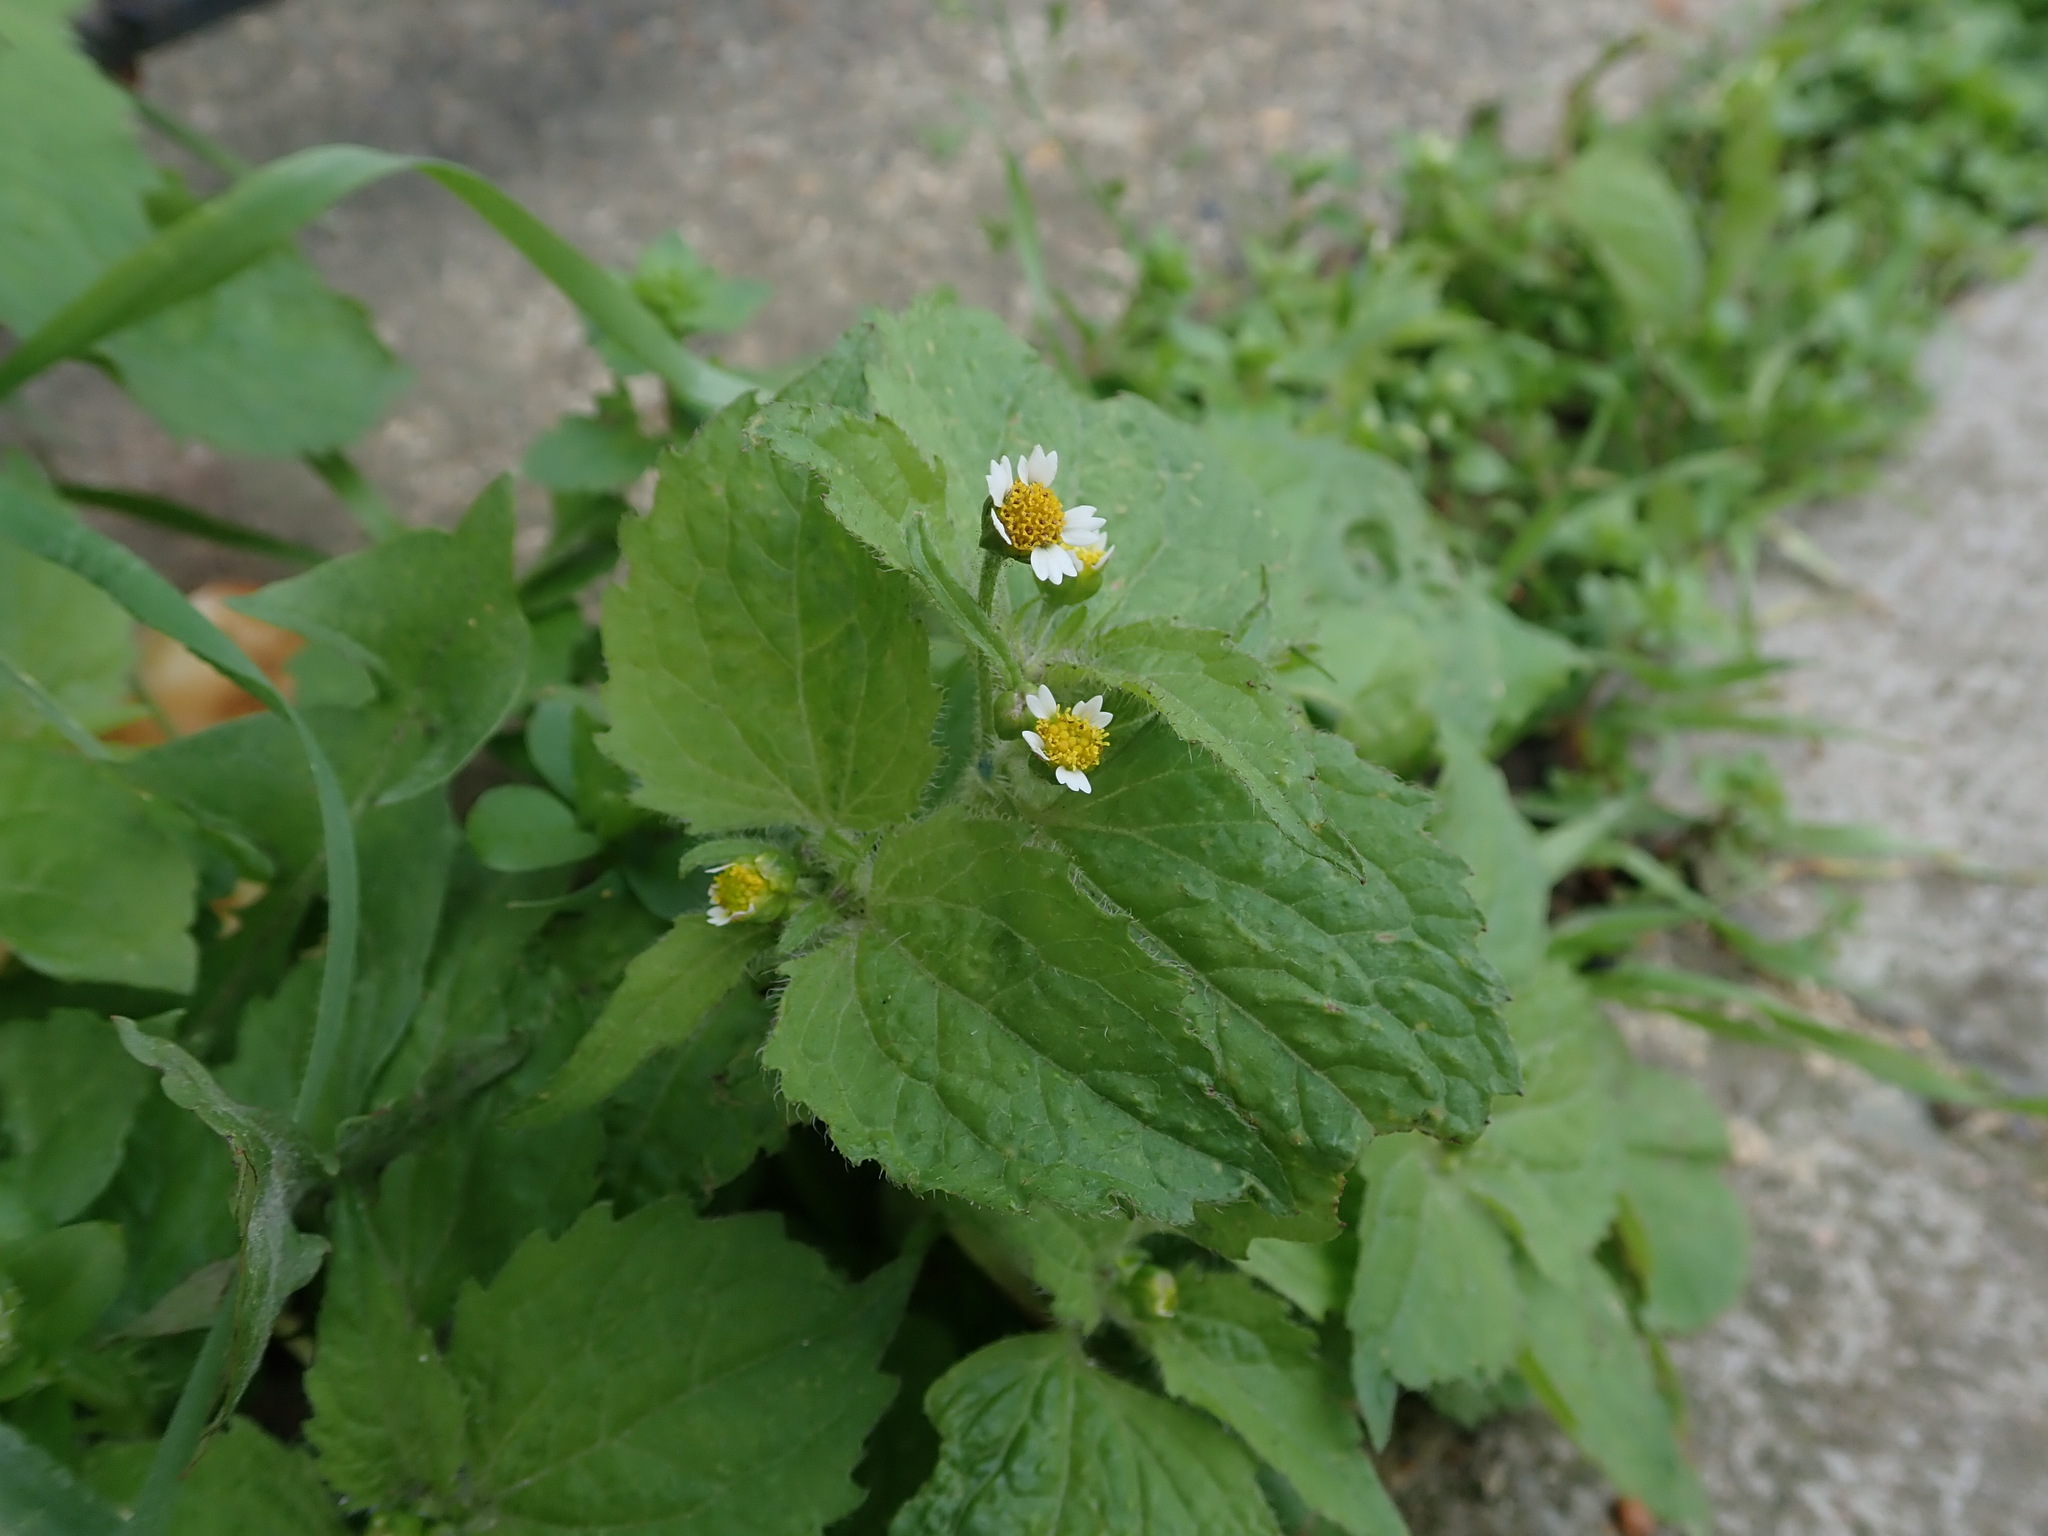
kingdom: Plantae
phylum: Tracheophyta
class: Magnoliopsida
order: Asterales
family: Asteraceae
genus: Galinsoga
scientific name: Galinsoga quadriradiata
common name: Shaggy soldier
